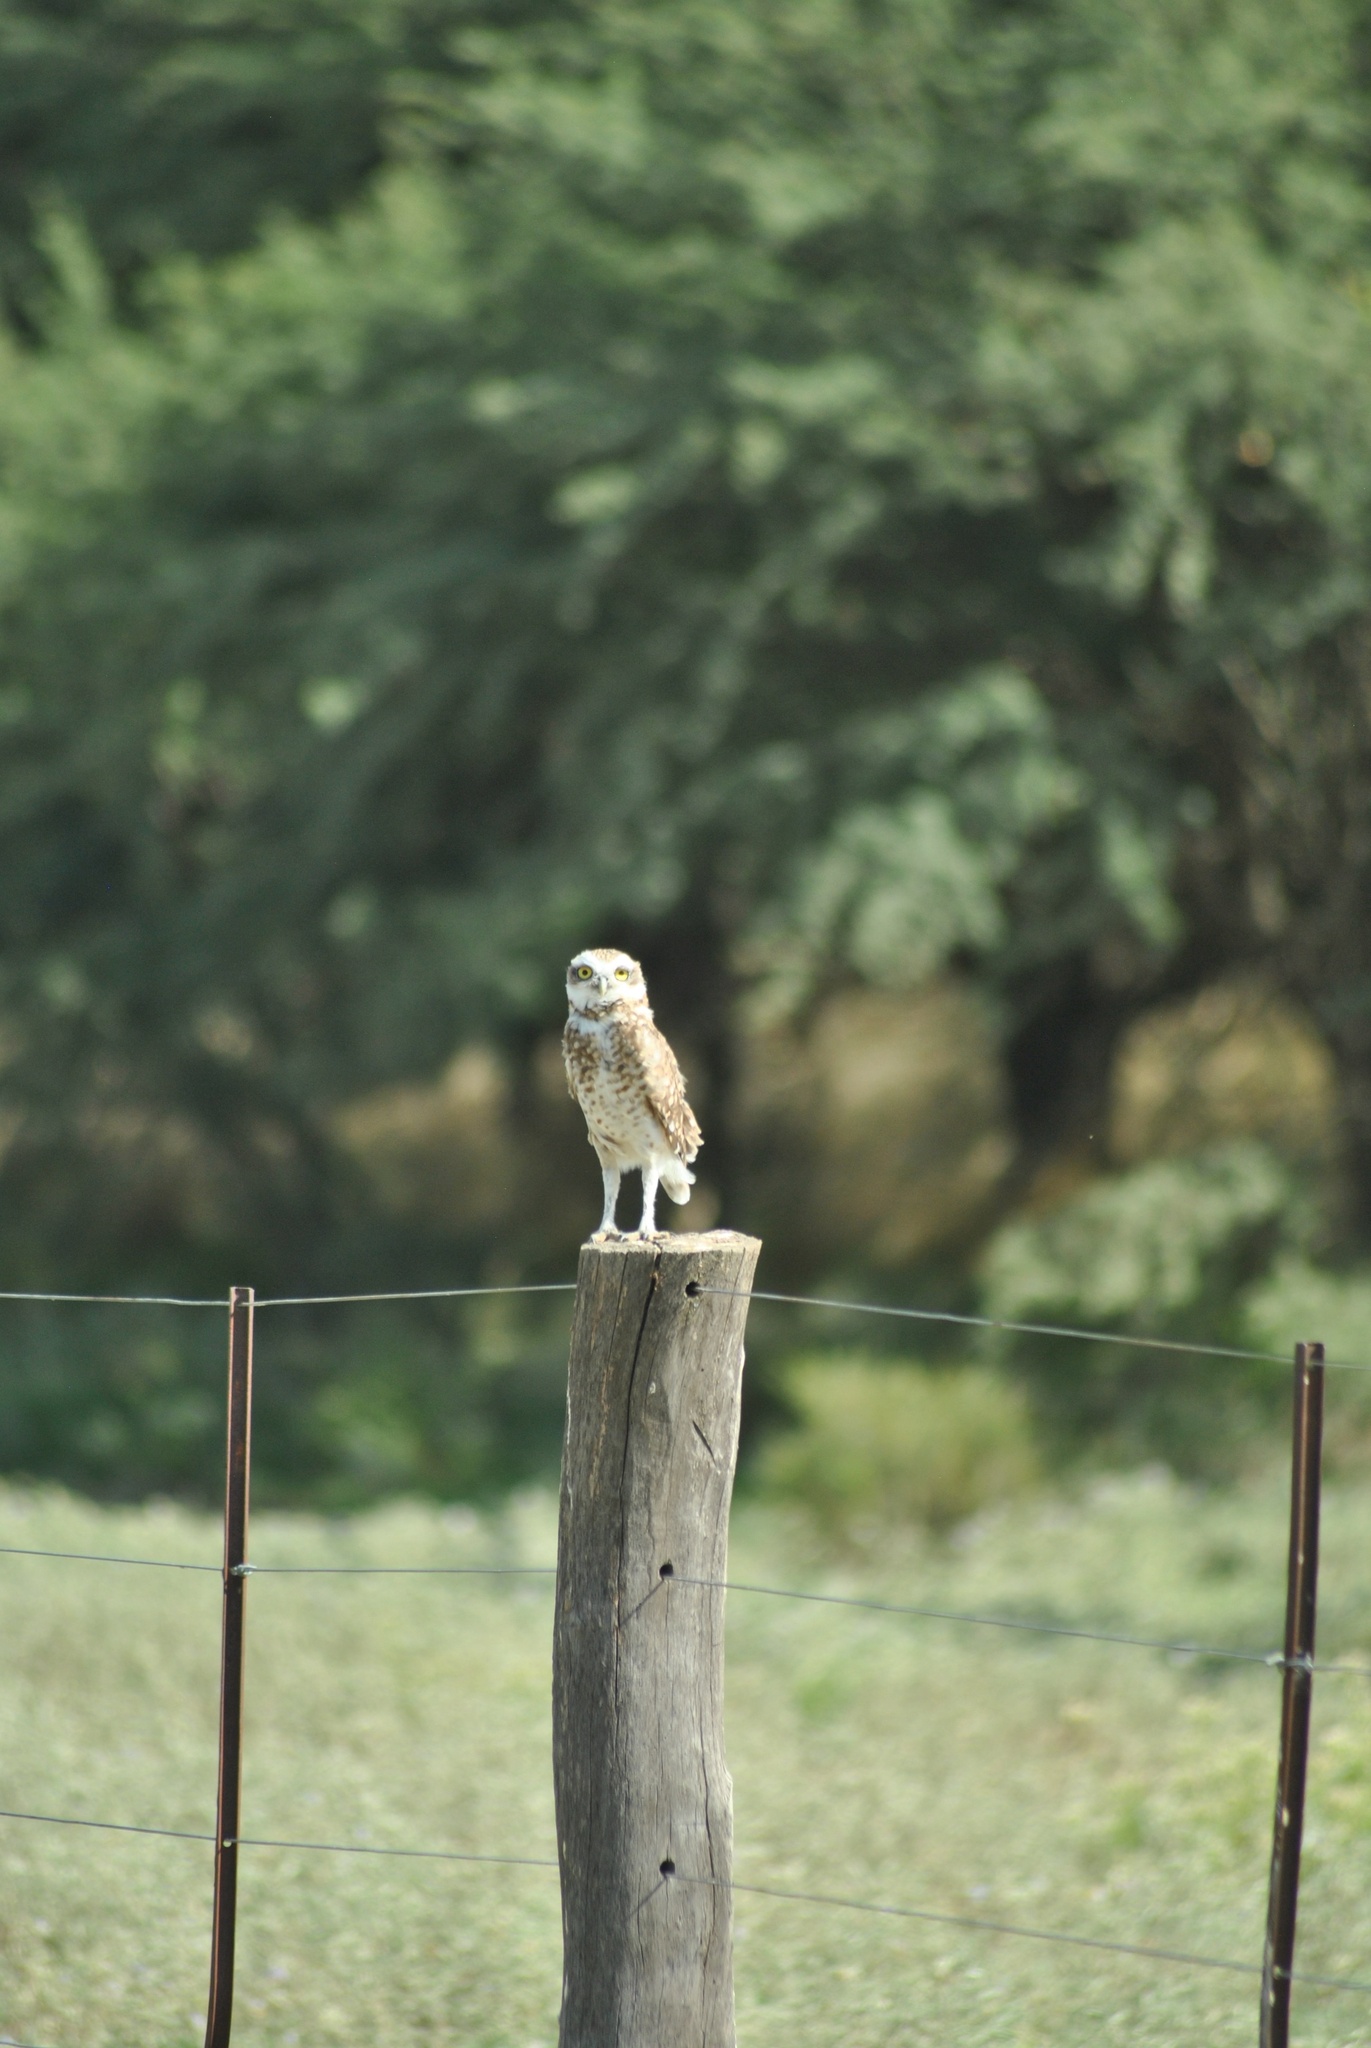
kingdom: Animalia
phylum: Chordata
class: Aves
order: Strigiformes
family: Strigidae
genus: Athene
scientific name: Athene cunicularia
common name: Burrowing owl
